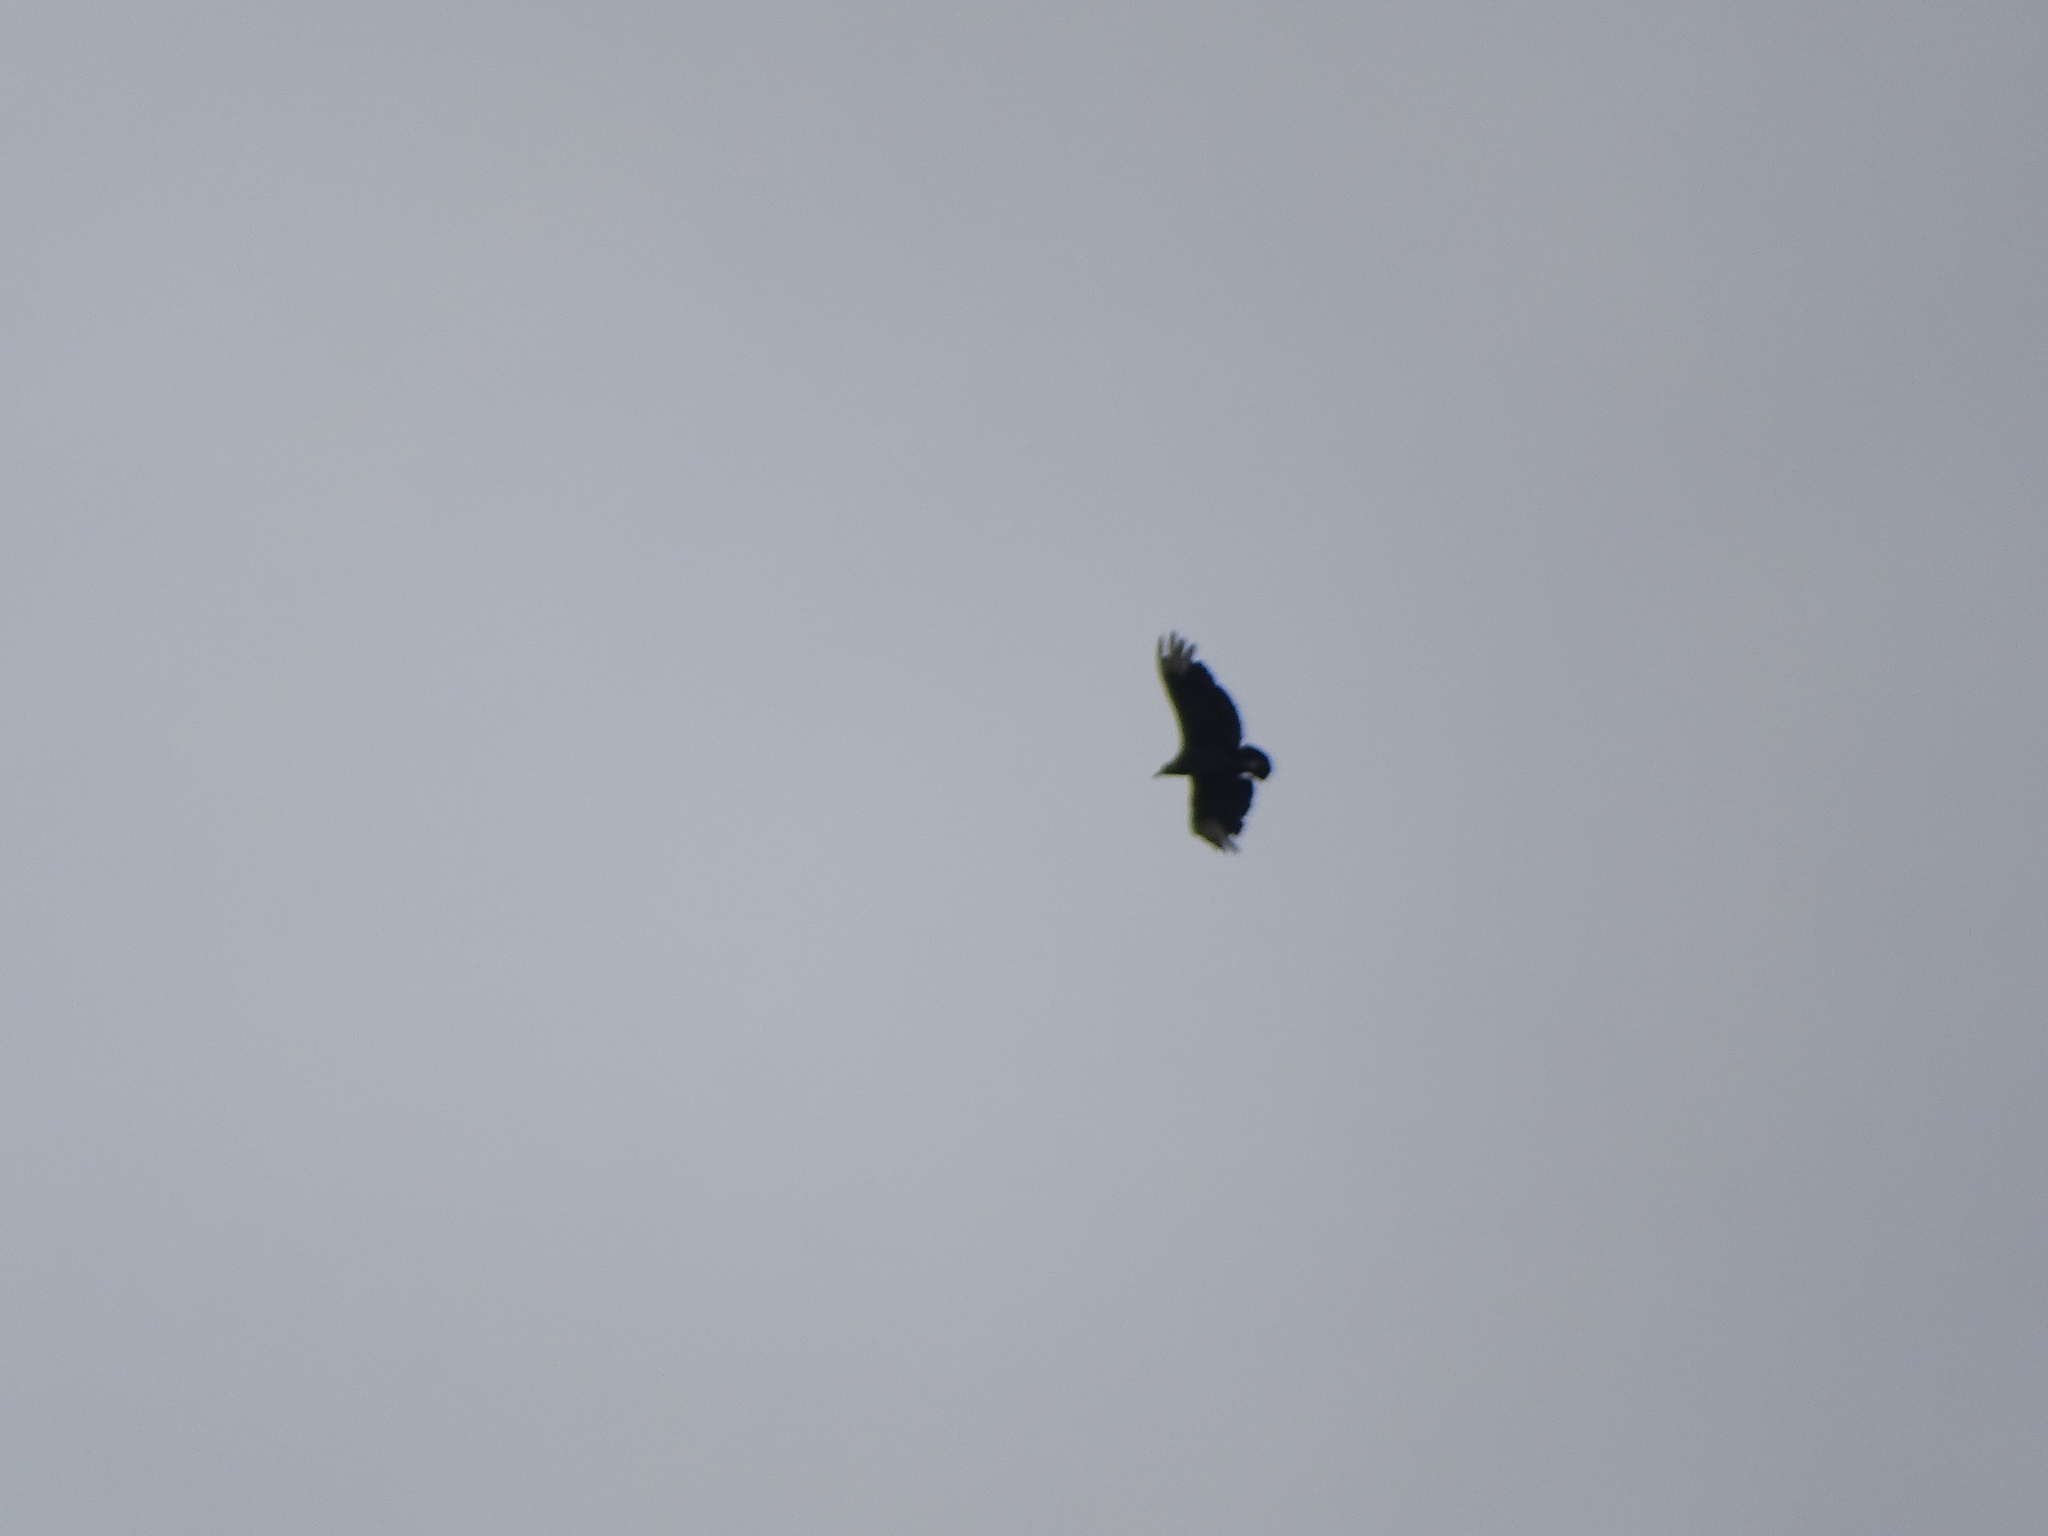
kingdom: Animalia
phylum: Chordata
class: Aves
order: Accipitriformes
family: Cathartidae
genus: Coragyps
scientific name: Coragyps atratus
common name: Black vulture
